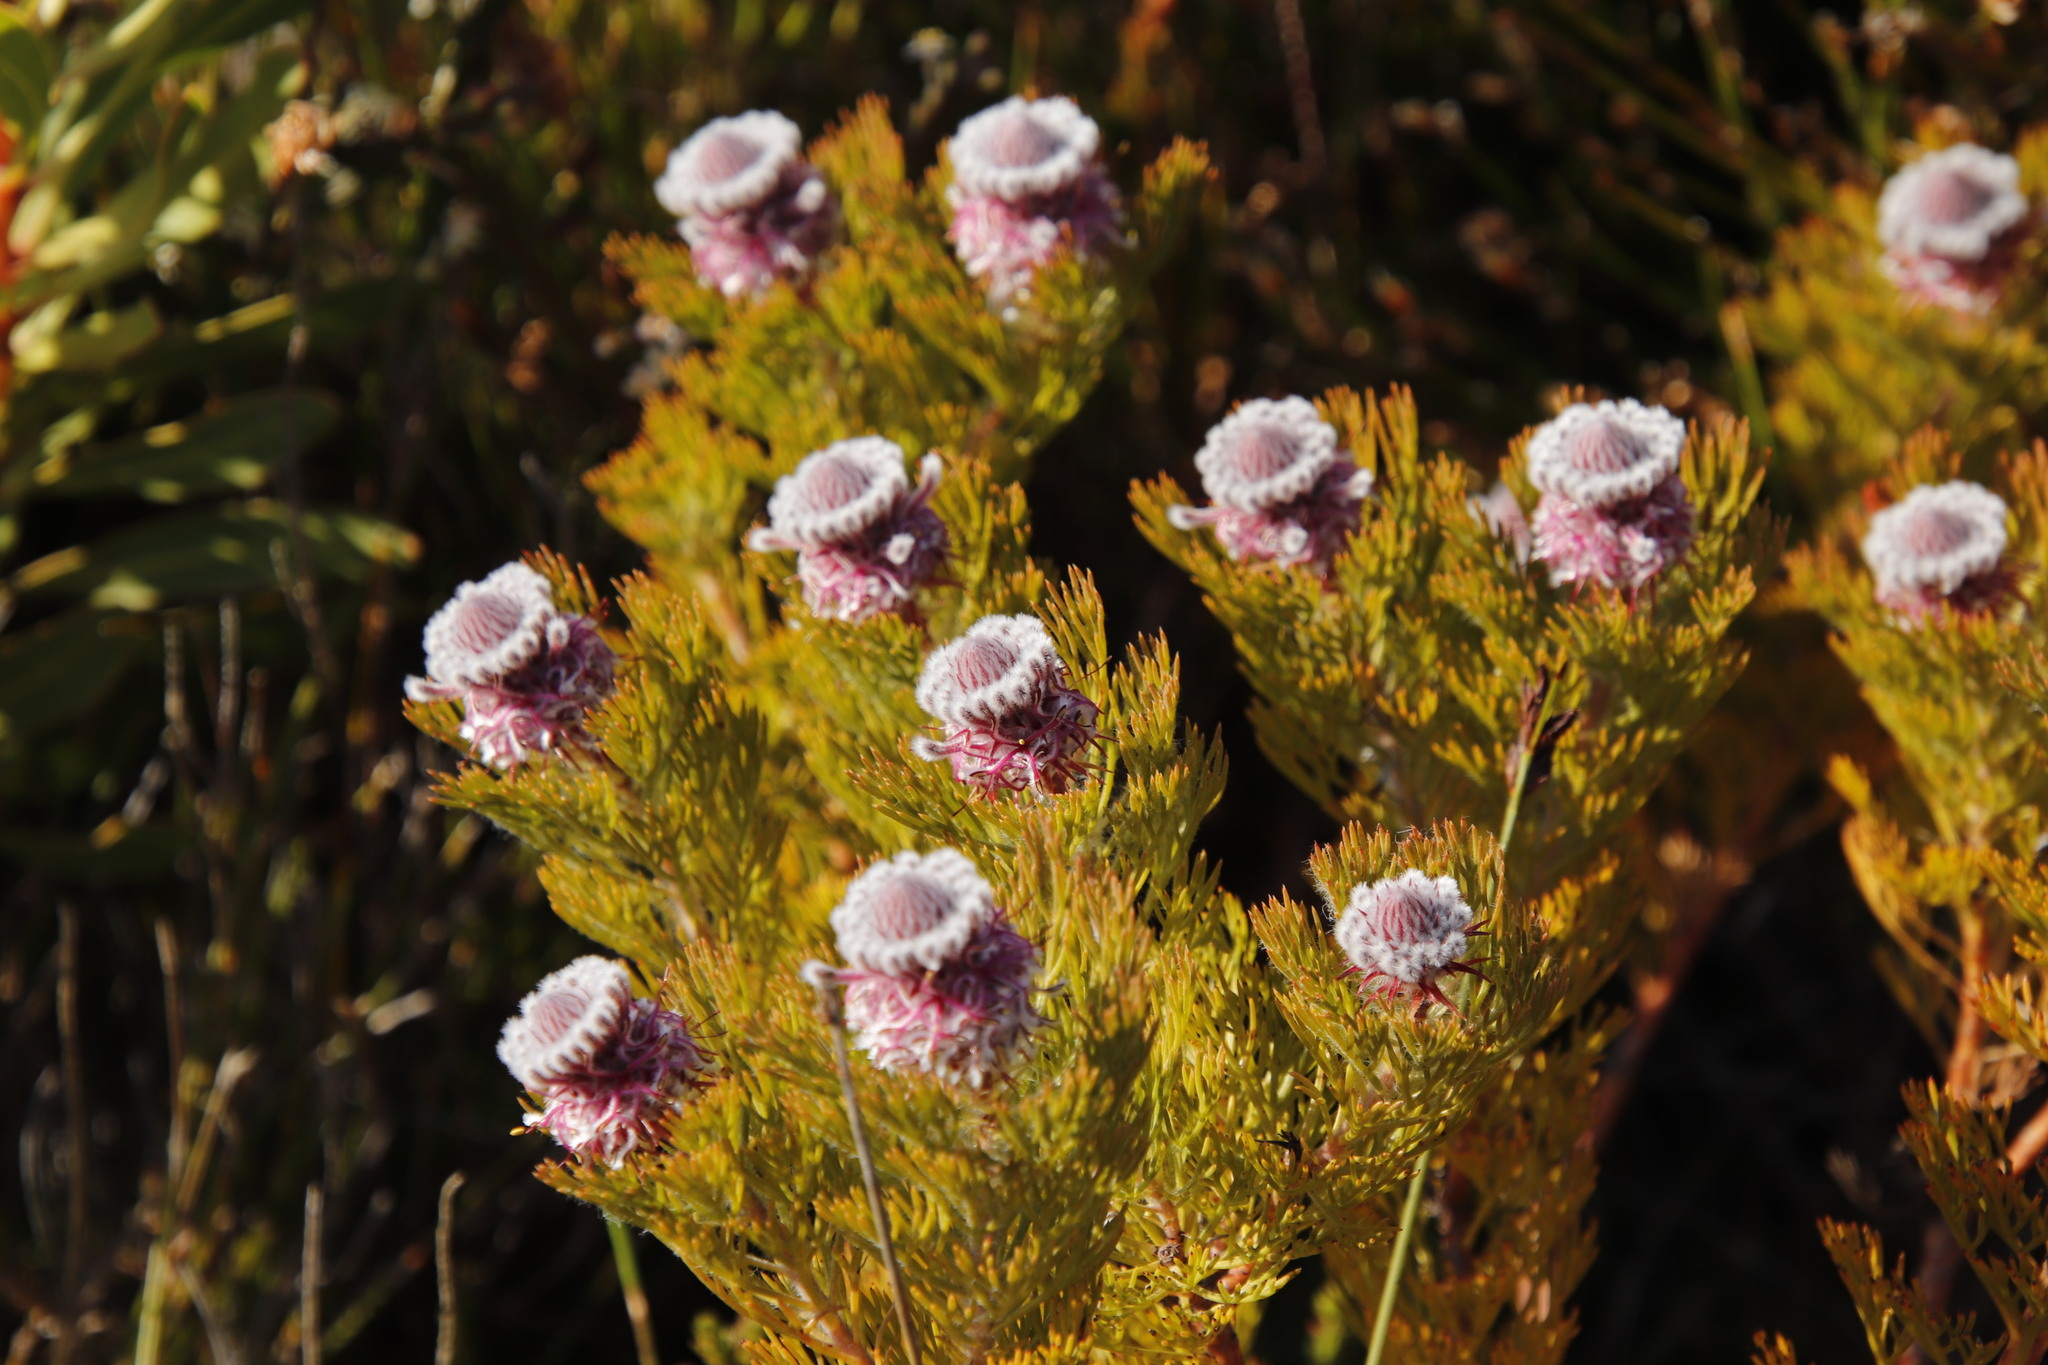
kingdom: Plantae
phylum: Tracheophyta
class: Magnoliopsida
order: Proteales
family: Proteaceae
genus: Serruria
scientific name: Serruria hirsuta
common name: Swartkops spiderhead
